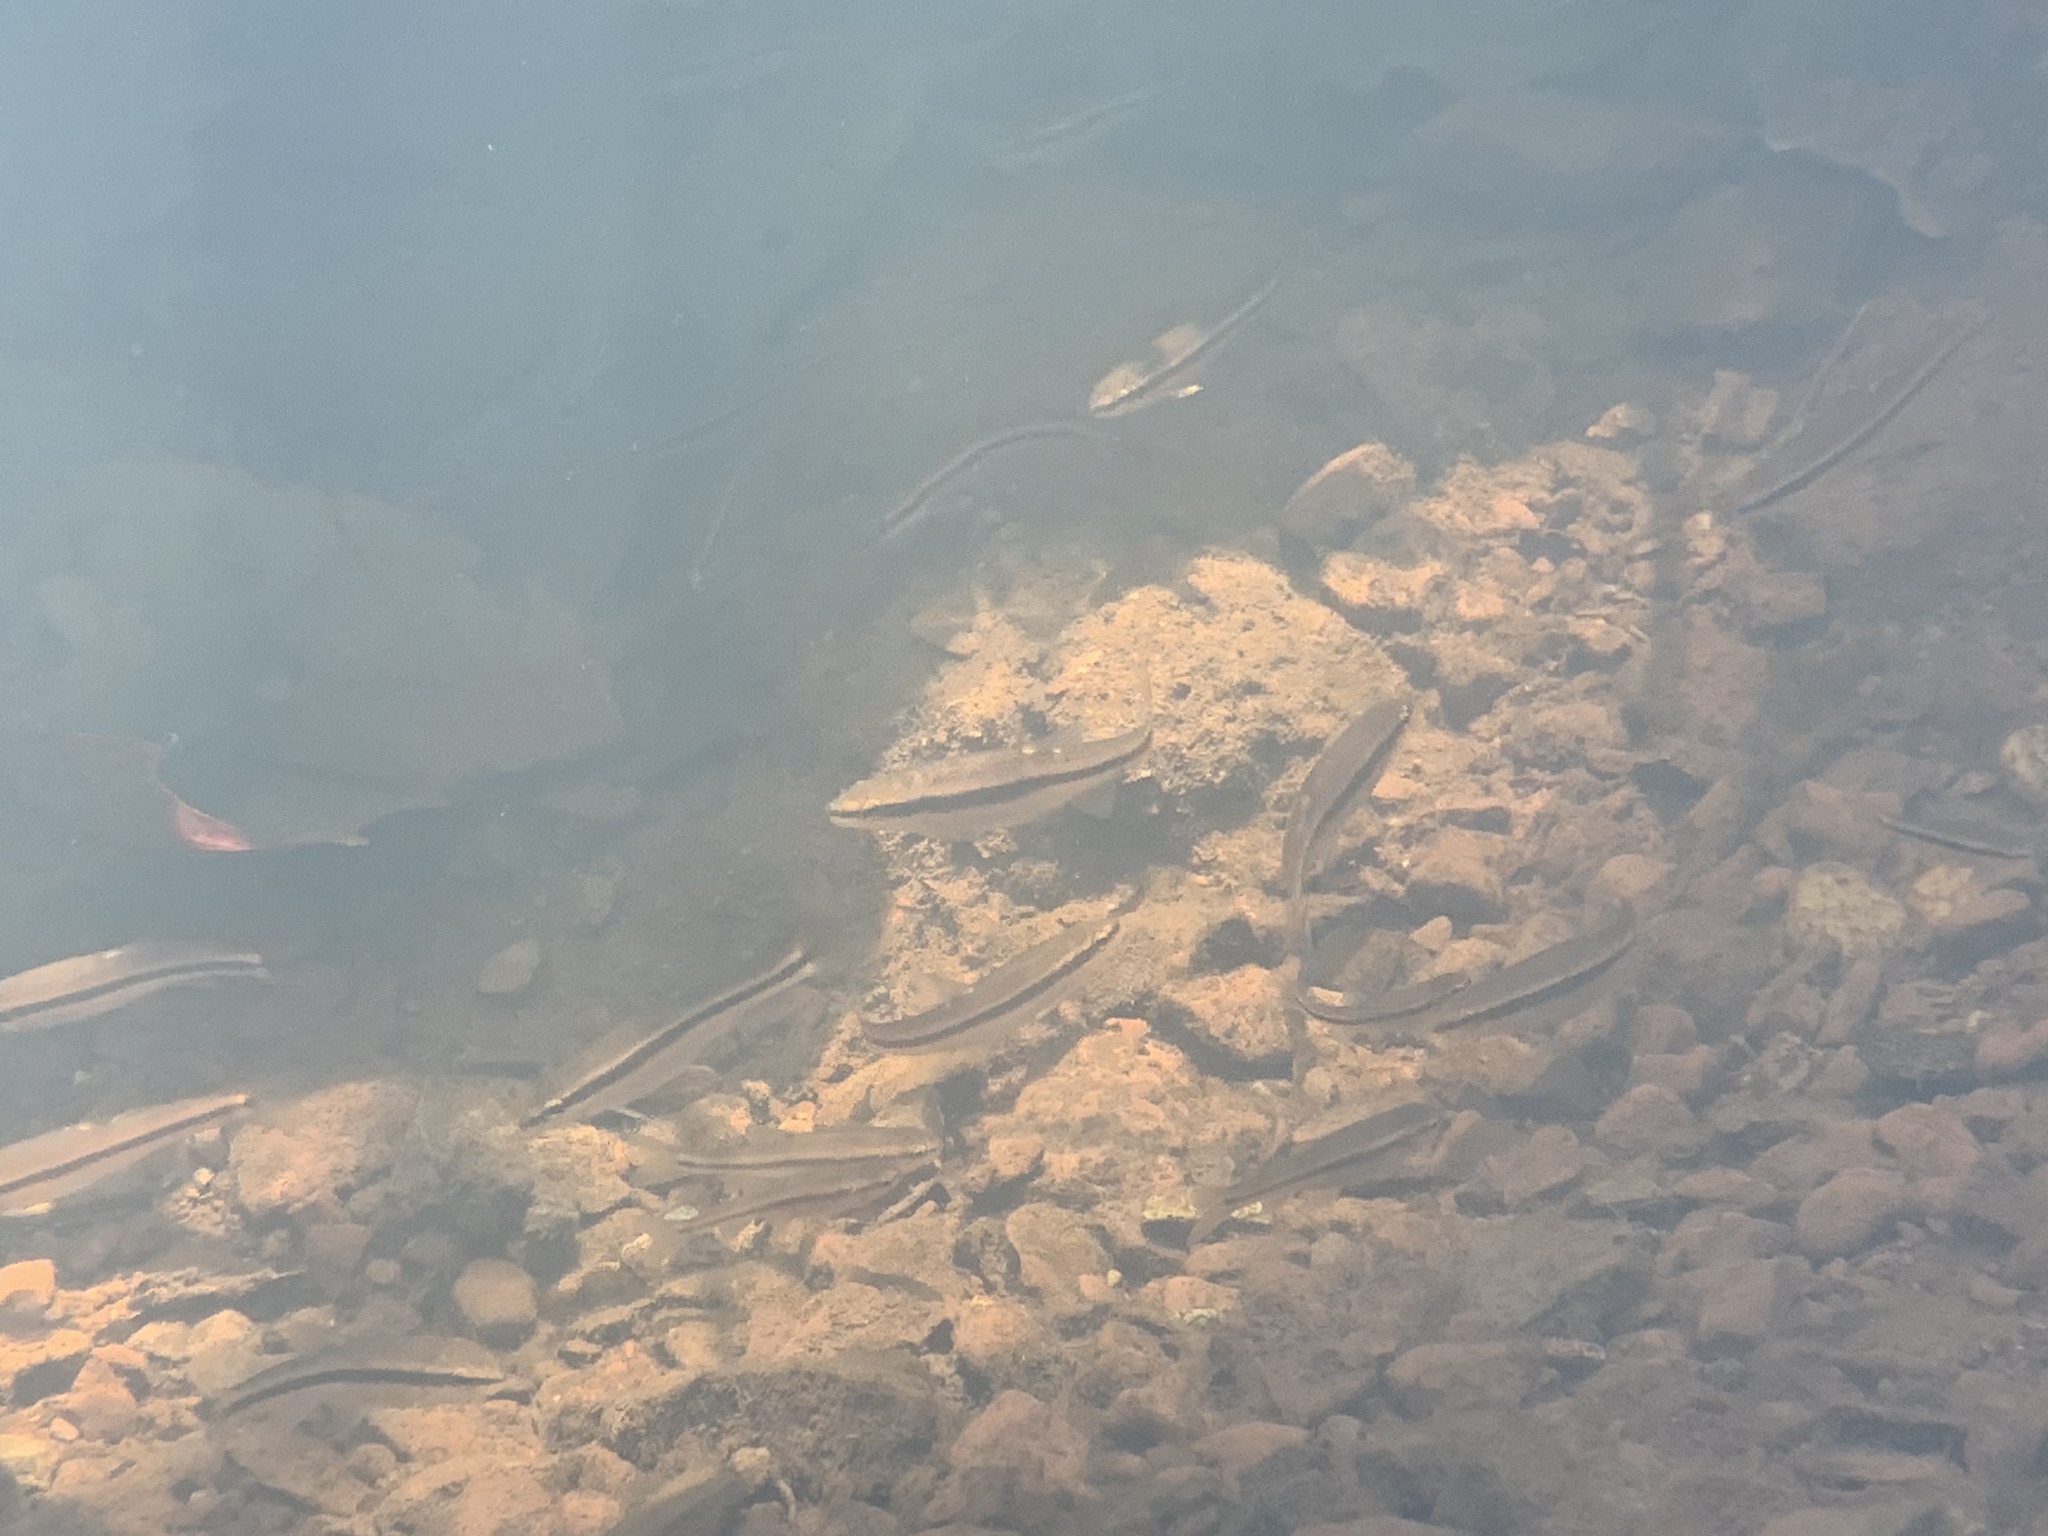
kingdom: Animalia
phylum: Chordata
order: Cypriniformes
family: Cyprinidae
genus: Semotilus
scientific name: Semotilus atromaculatus
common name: Creek chub
